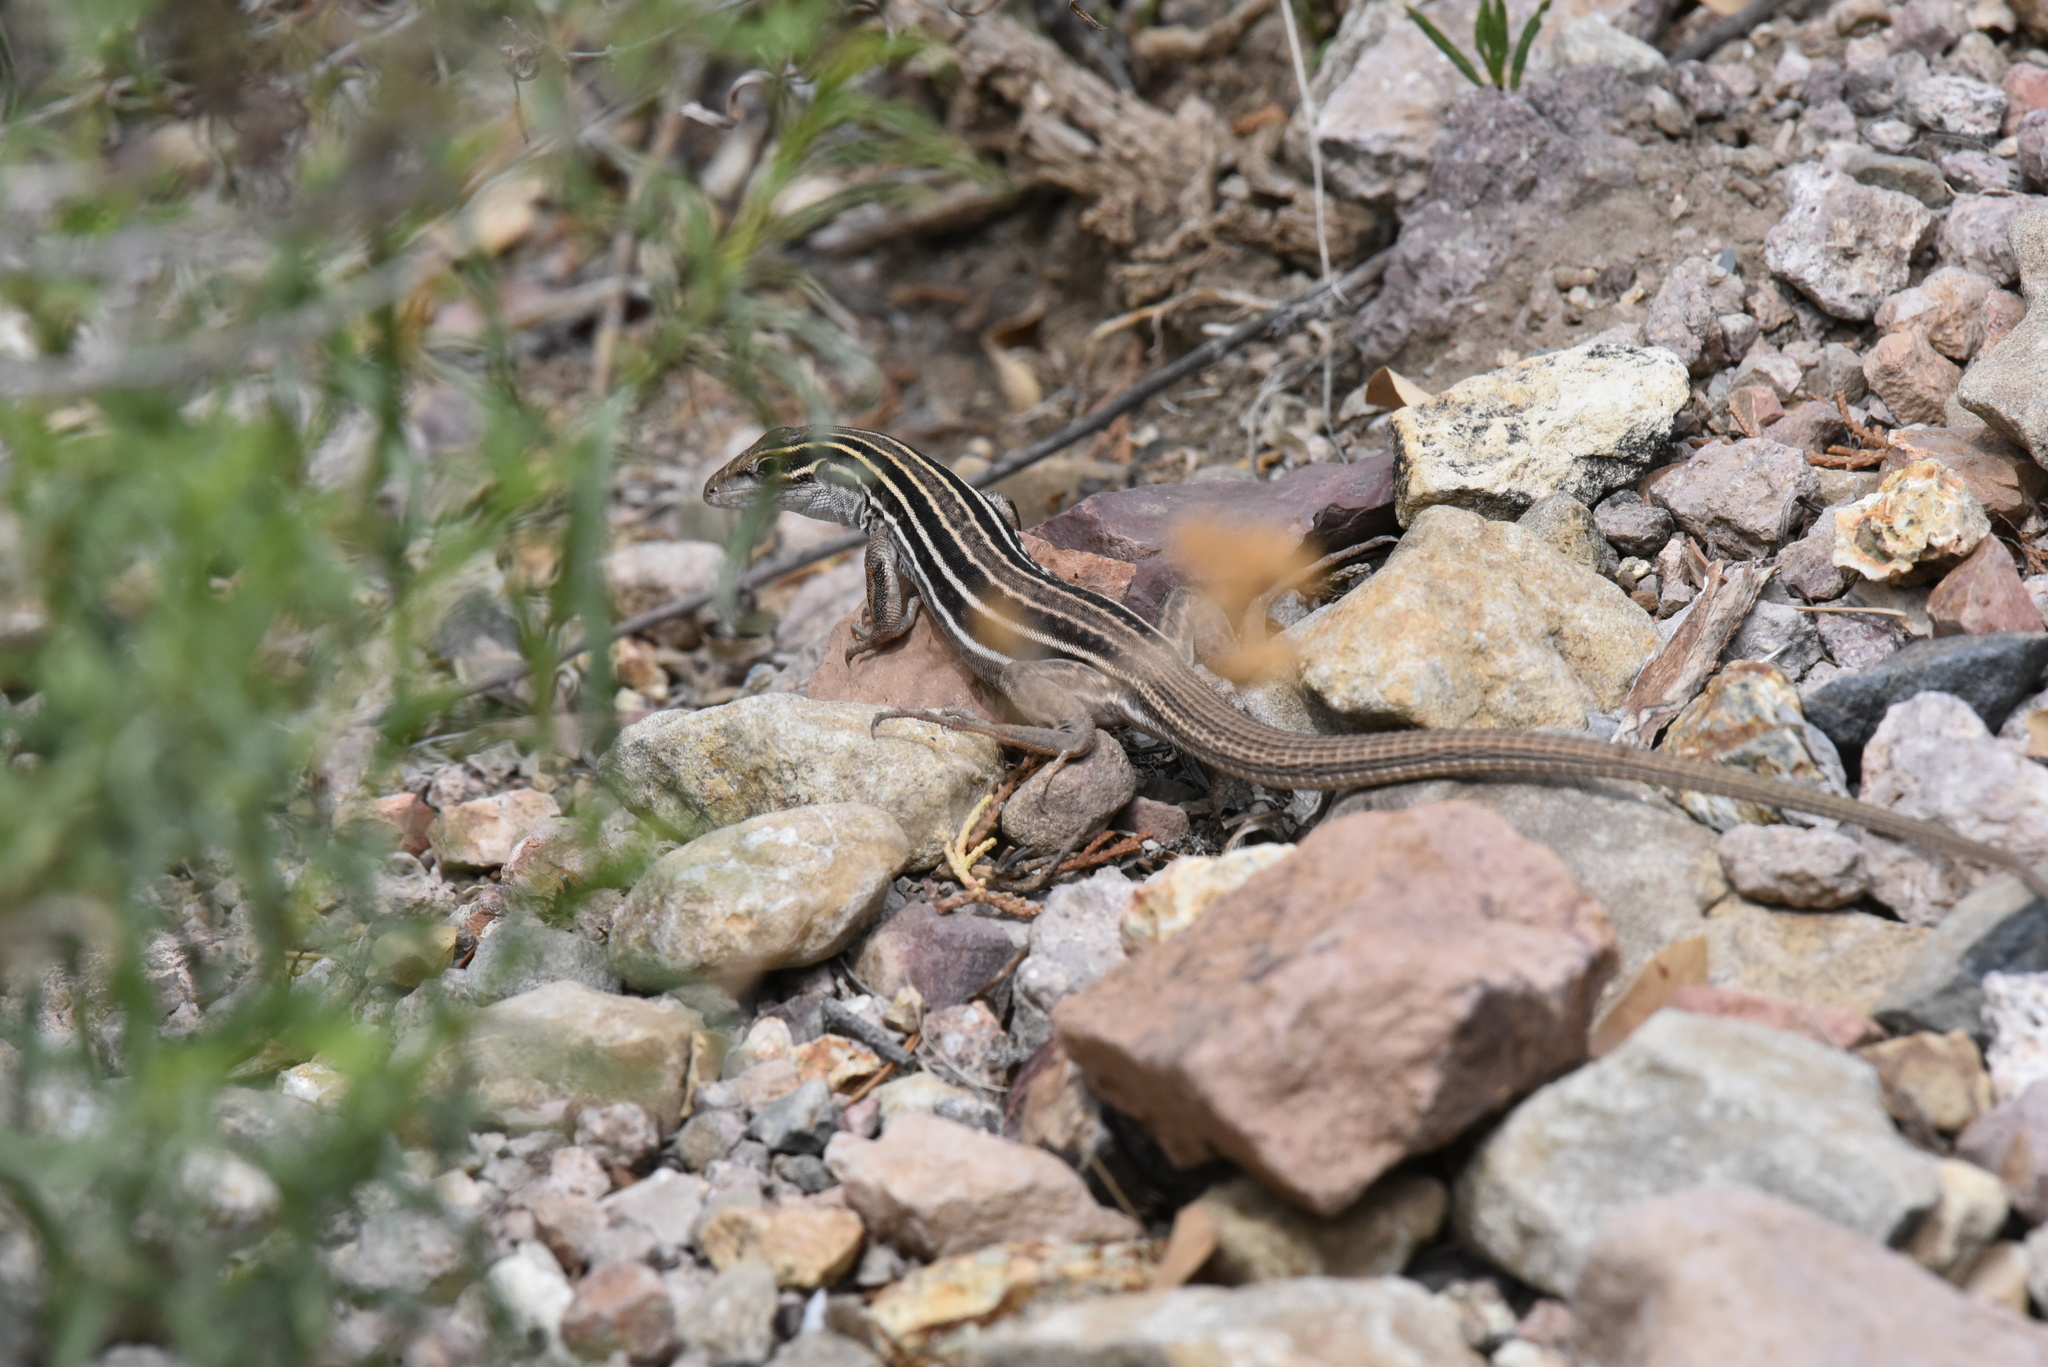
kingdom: Animalia
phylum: Chordata
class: Squamata
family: Teiidae
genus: Aspidoscelis
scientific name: Aspidoscelis exsanguis
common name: Chihuahuan spotted whiptail
